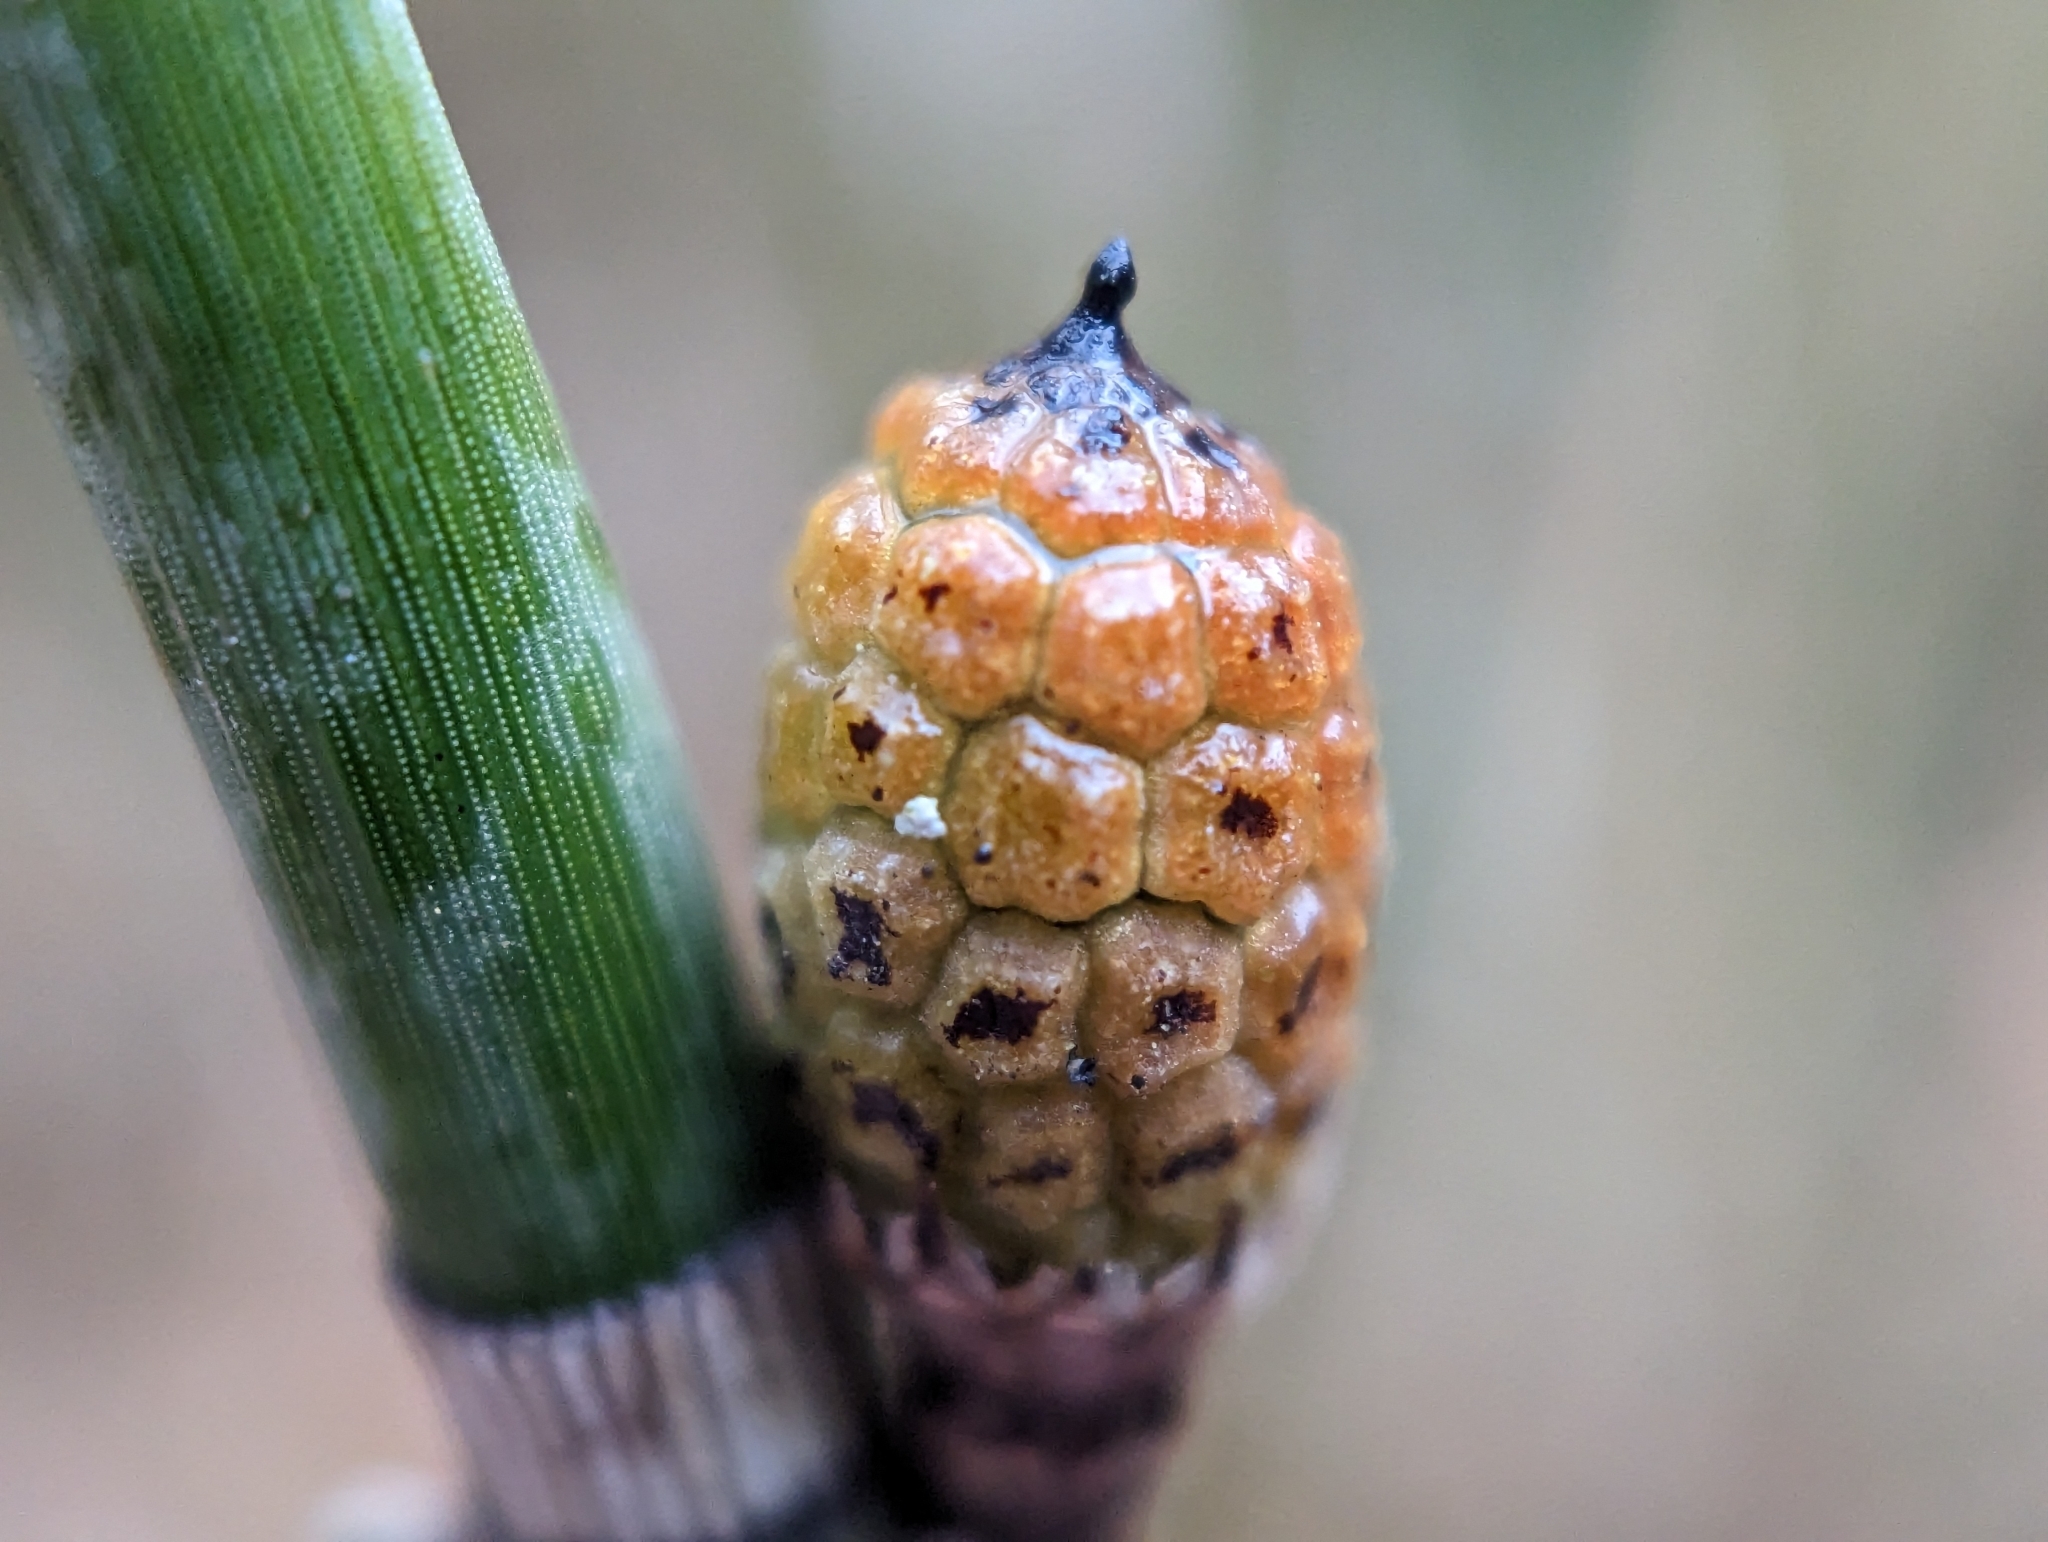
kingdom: Plantae
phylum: Tracheophyta
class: Polypodiopsida
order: Equisetales
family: Equisetaceae
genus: Equisetum
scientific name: Equisetum hyemale
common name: Rough horsetail
